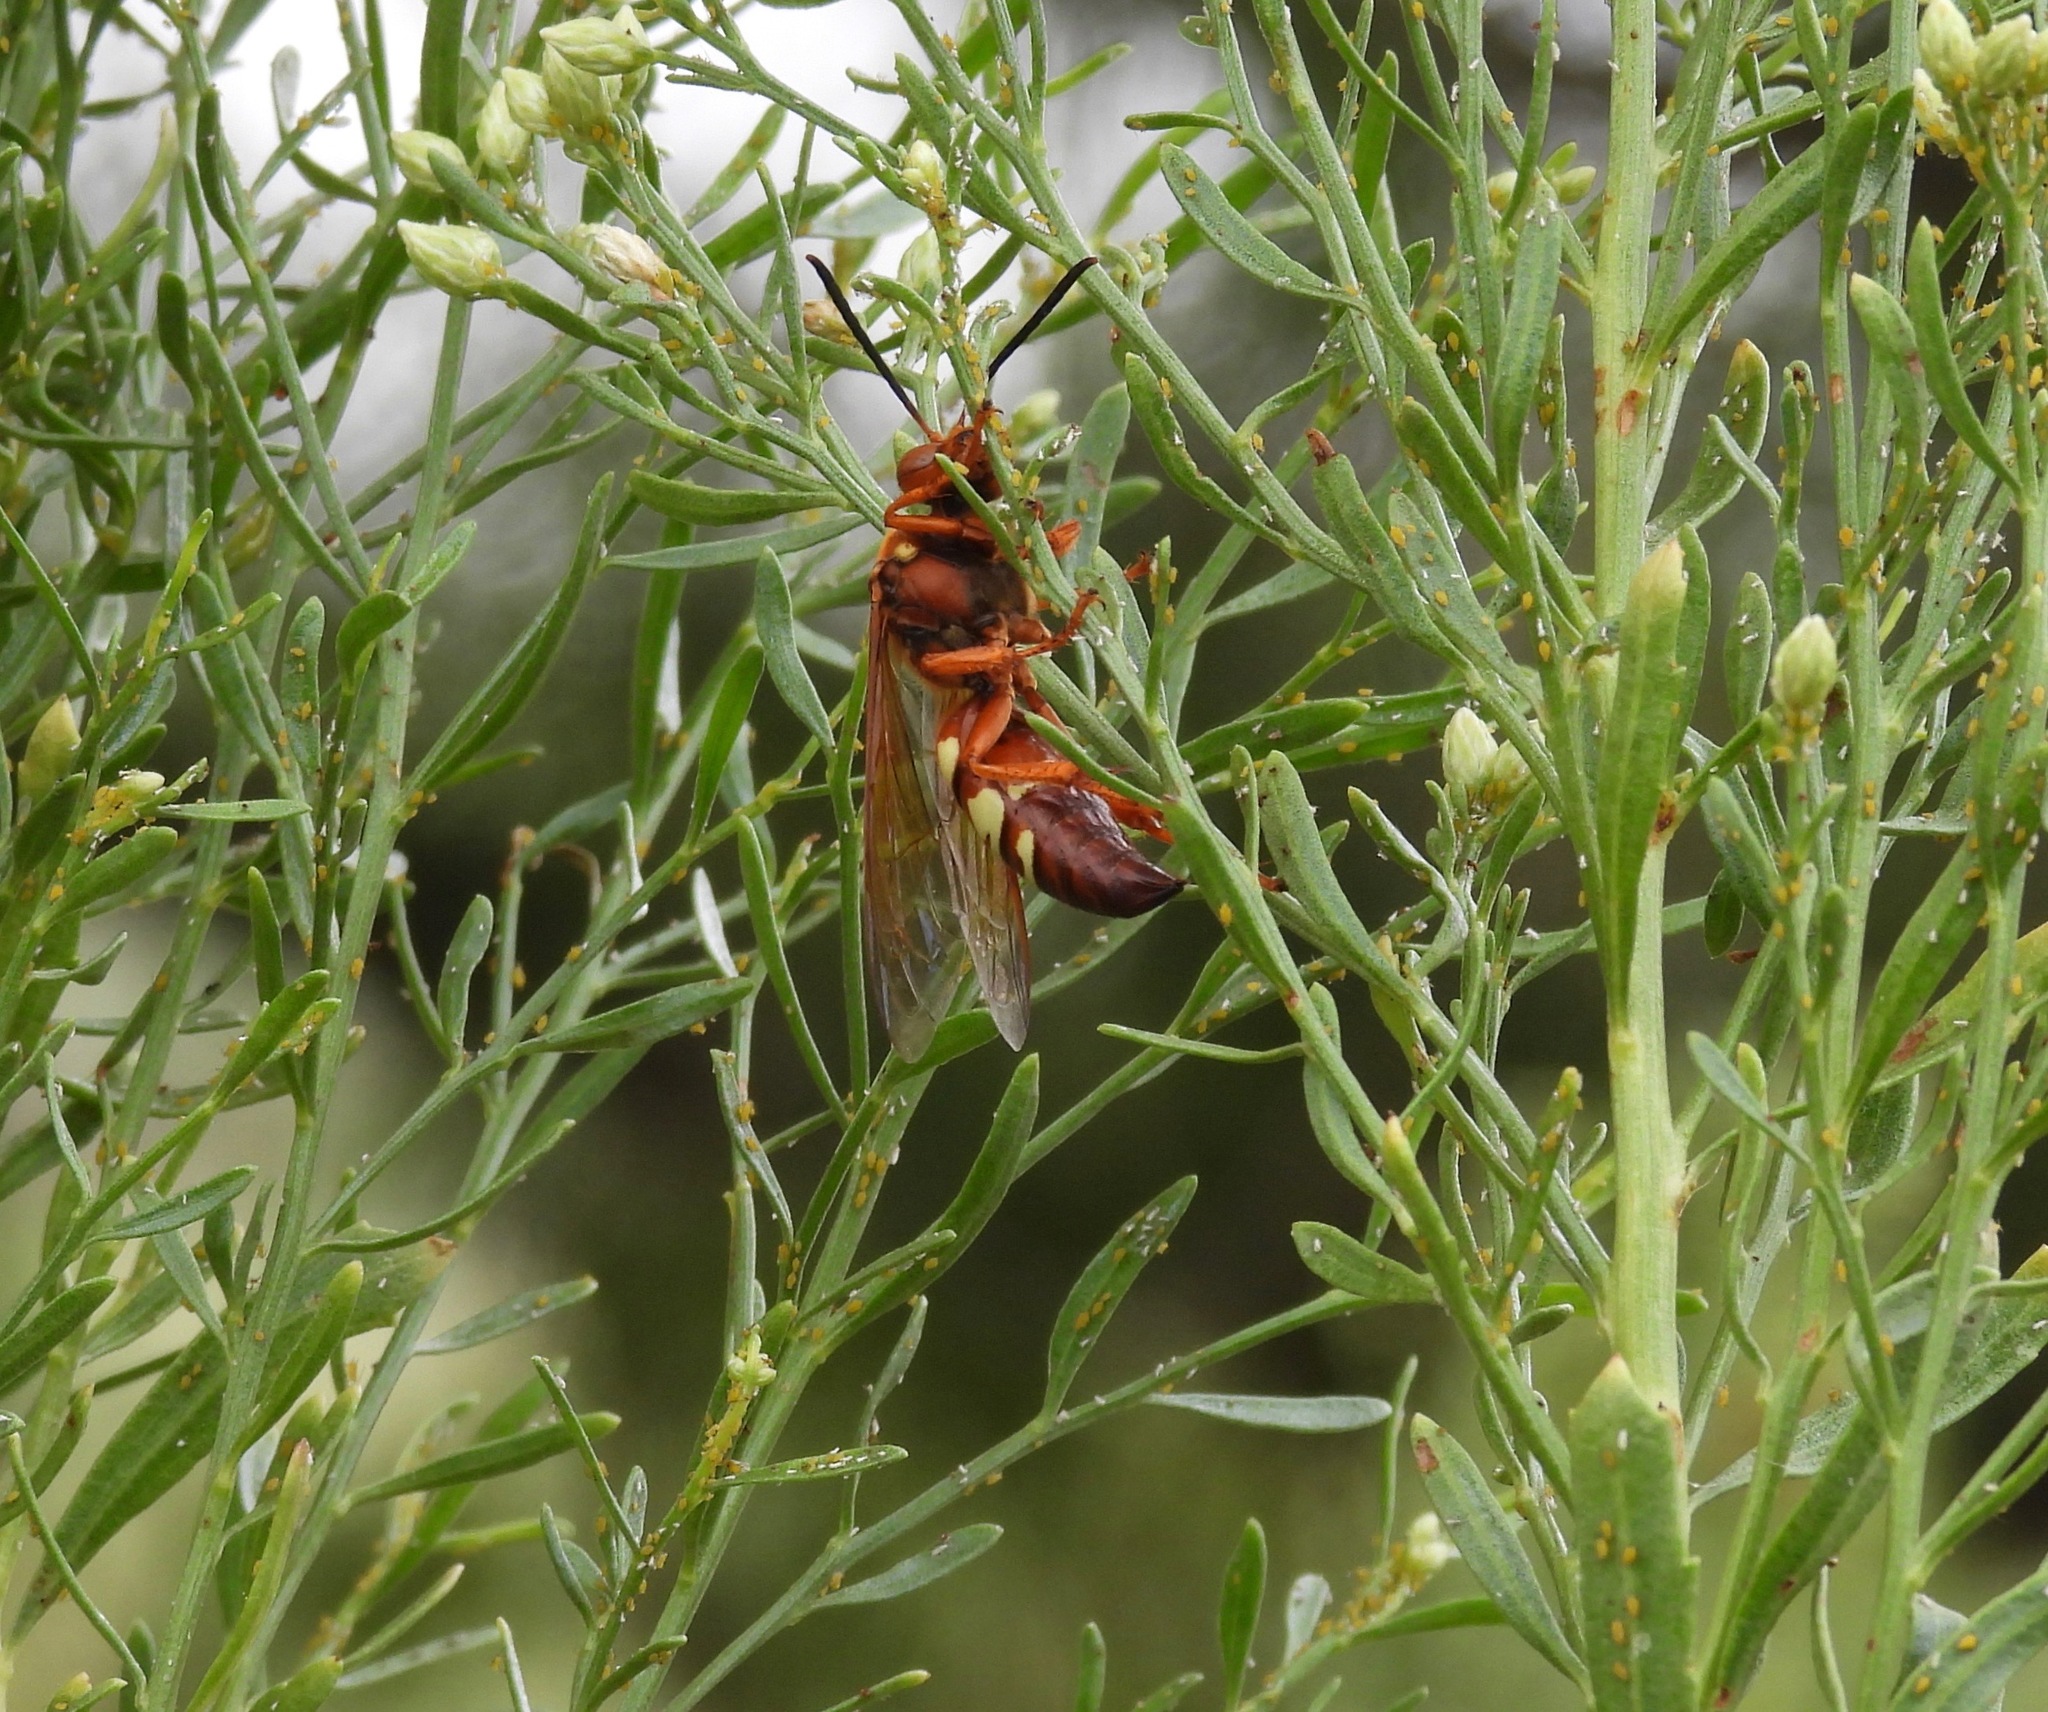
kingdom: Animalia
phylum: Arthropoda
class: Insecta
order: Hymenoptera
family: Crabronidae
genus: Sphecius
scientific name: Sphecius convallis
